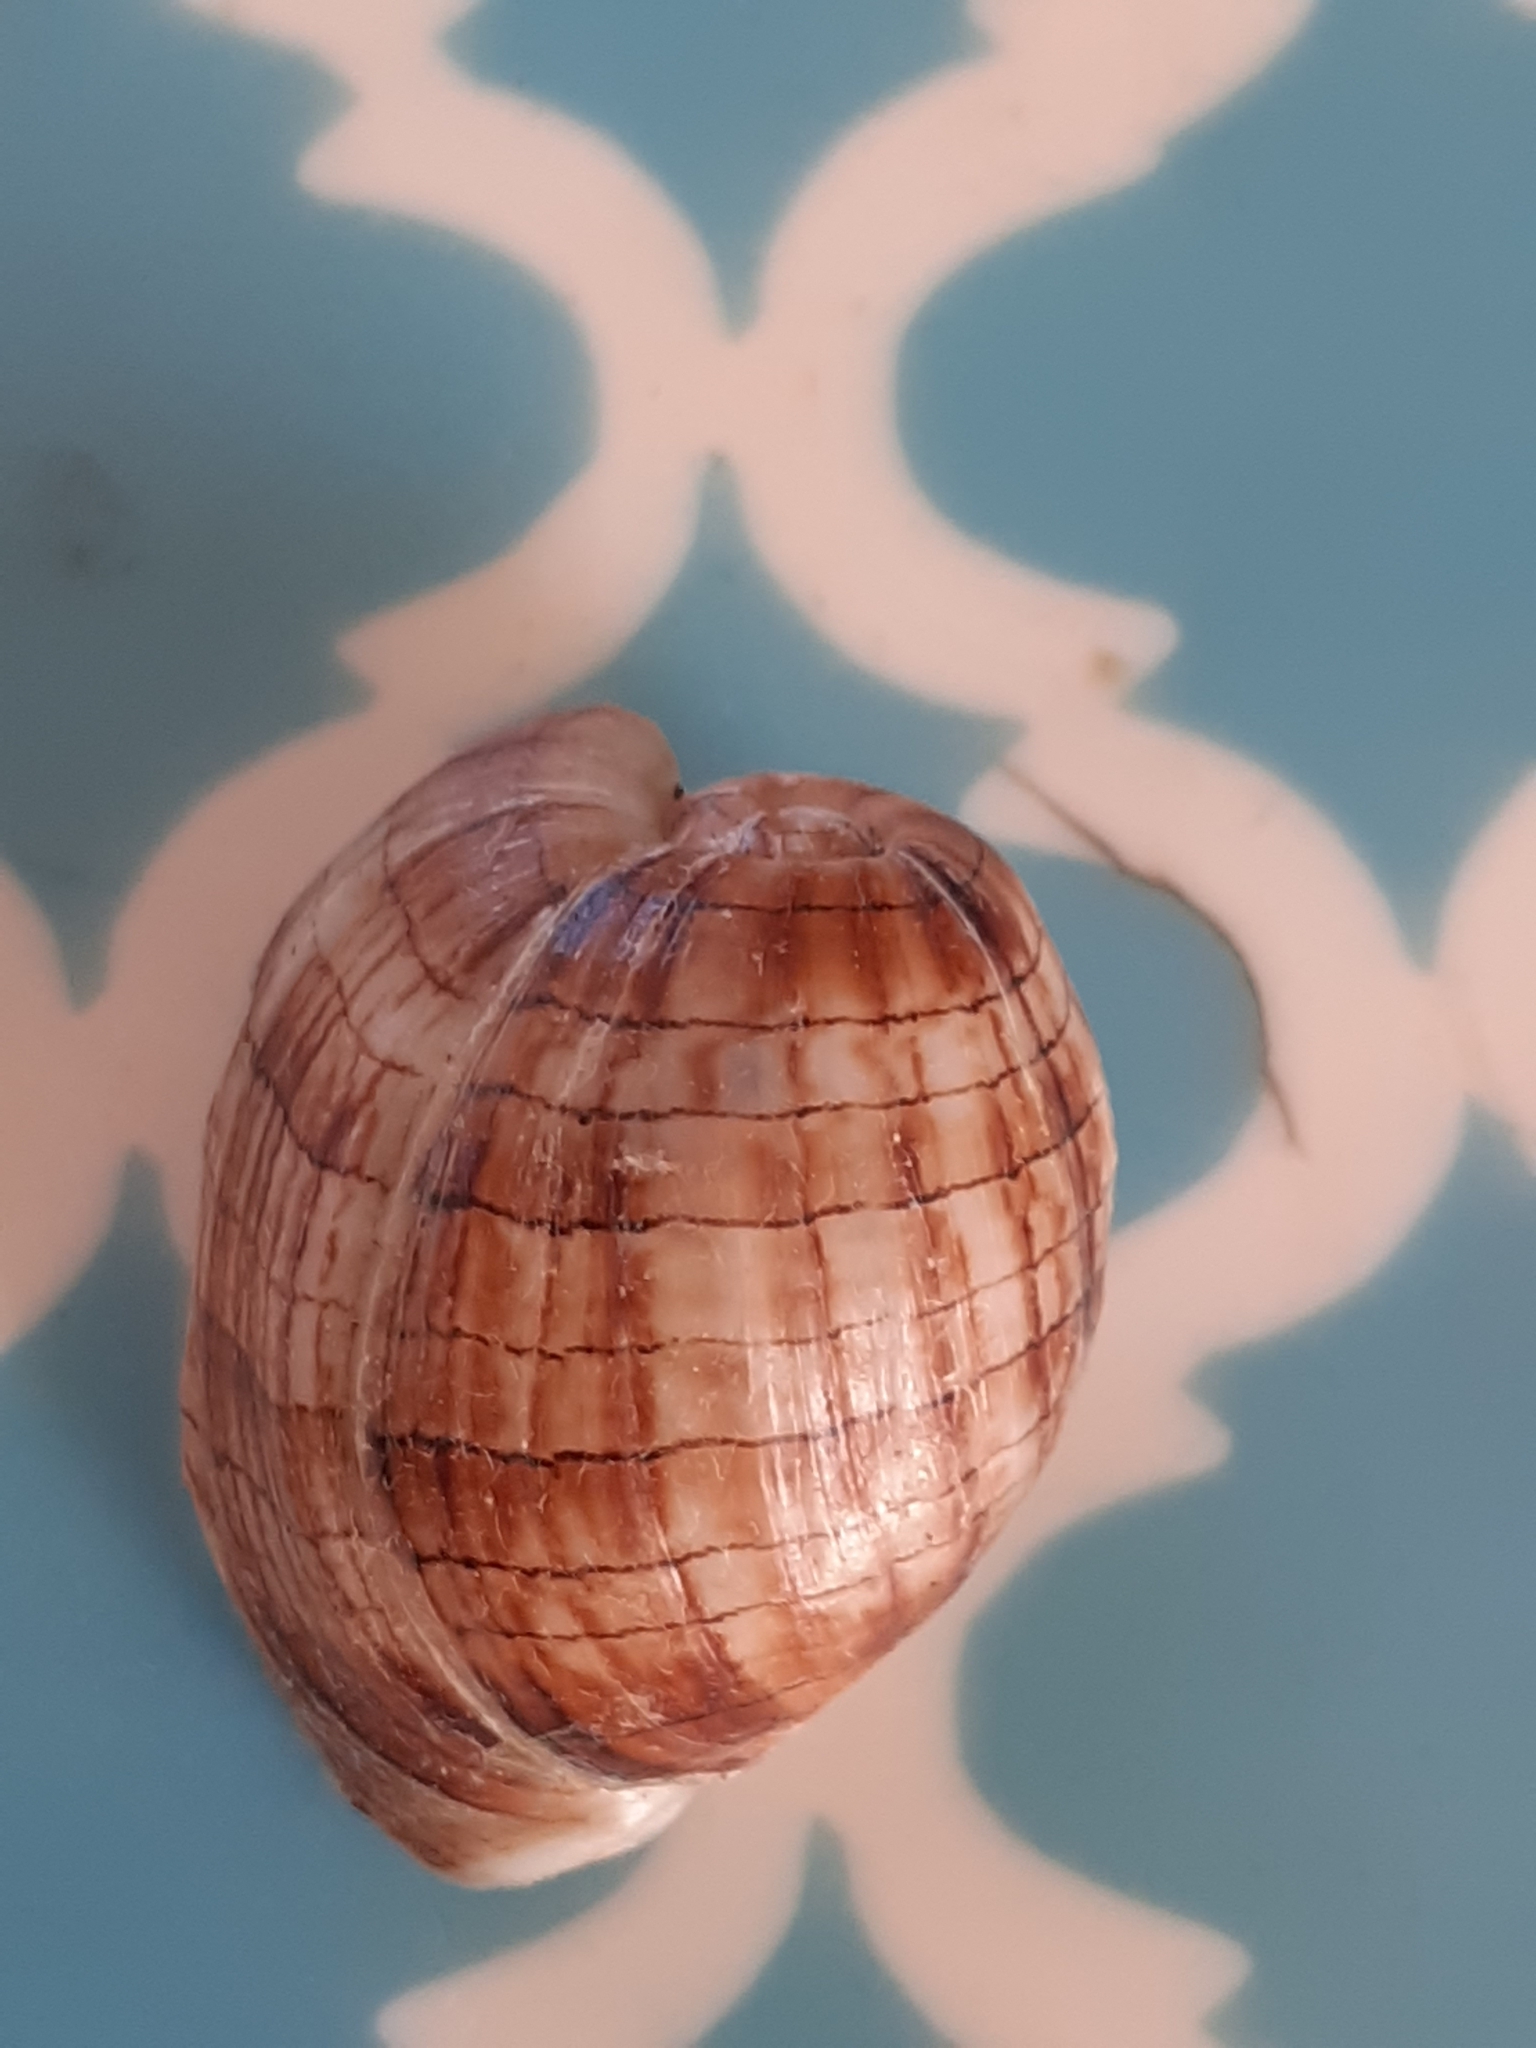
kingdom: Animalia
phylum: Mollusca
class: Gastropoda
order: Cephalaspidea
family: Aplustridae
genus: Hydatina
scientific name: Hydatina physis
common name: Brown-line paperbubble
